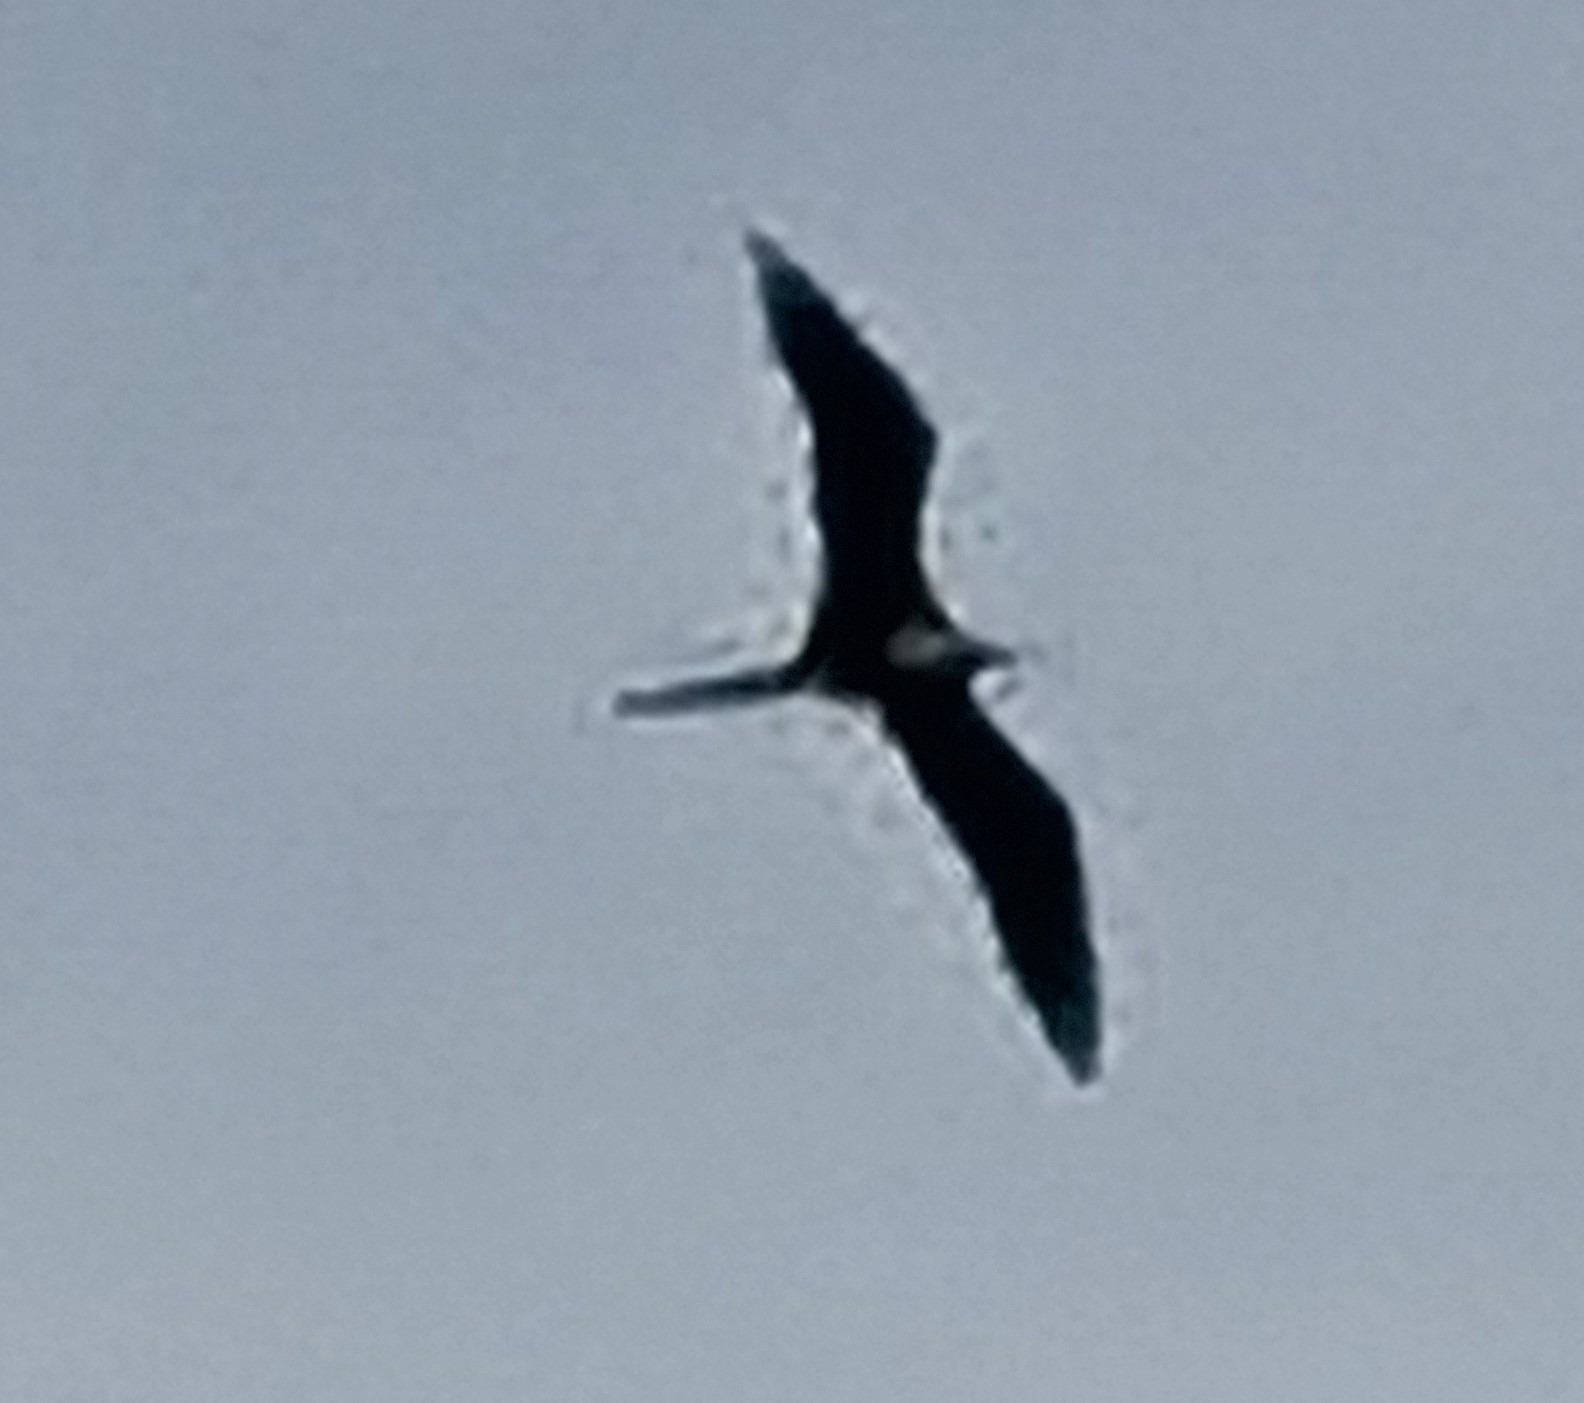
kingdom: Animalia
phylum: Chordata
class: Aves
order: Suliformes
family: Fregatidae
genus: Fregata
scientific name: Fregata magnificens
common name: Magnificent frigatebird
